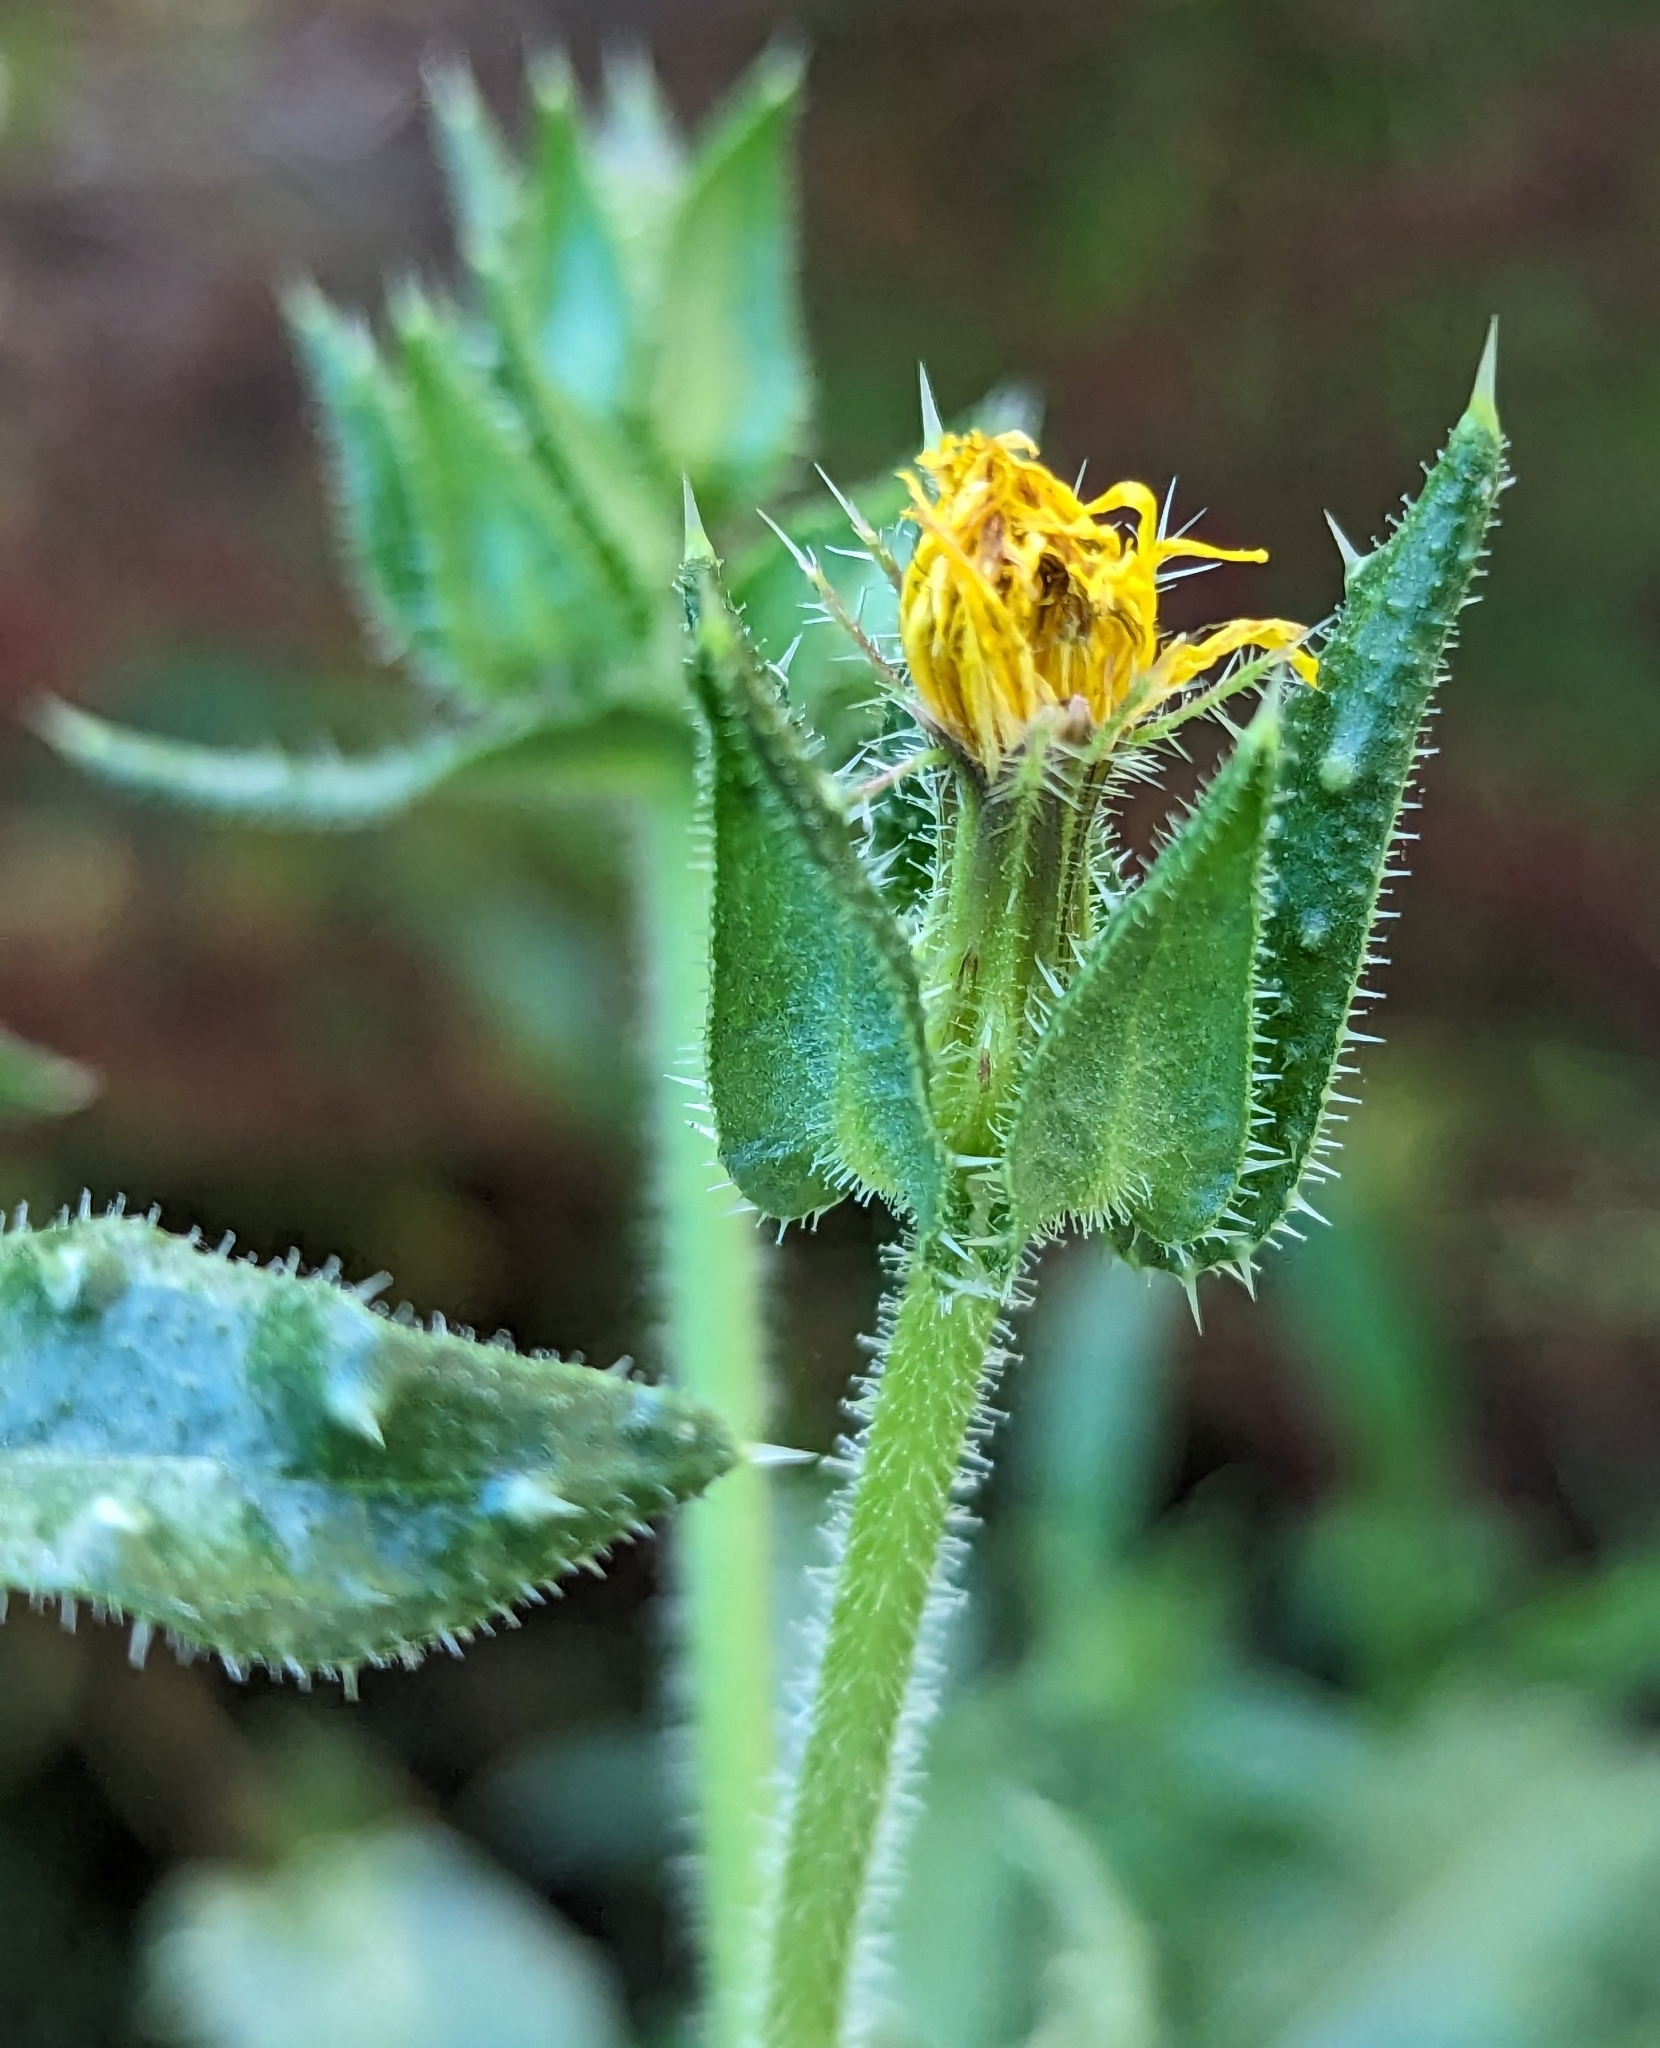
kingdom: Plantae
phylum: Tracheophyta
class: Magnoliopsida
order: Asterales
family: Asteraceae
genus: Helminthotheca
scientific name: Helminthotheca echioides
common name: Ox-tongue
